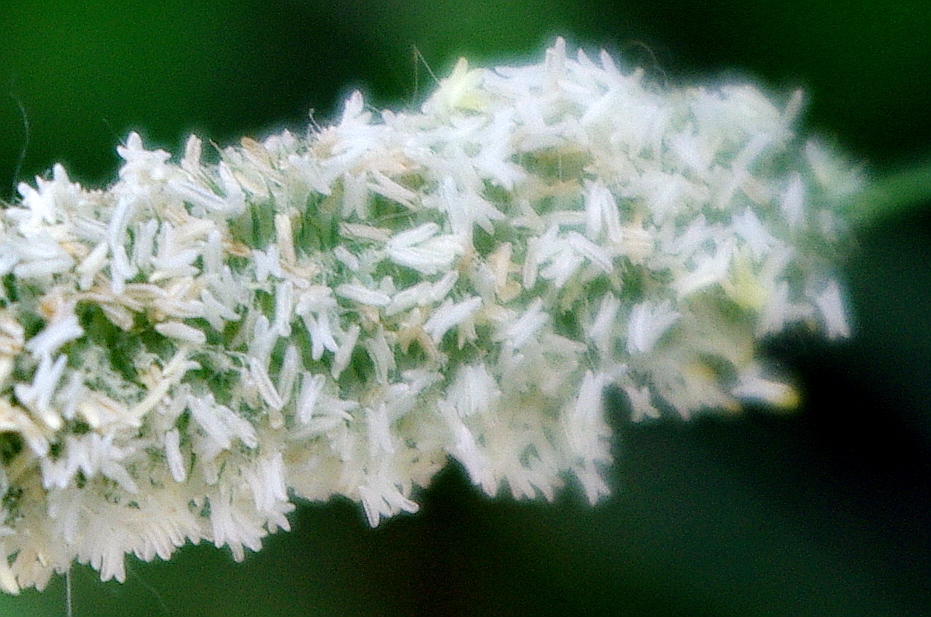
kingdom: Plantae
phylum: Tracheophyta
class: Liliopsida
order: Poales
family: Poaceae
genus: Phleum
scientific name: Phleum pratense
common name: Timothy grass
